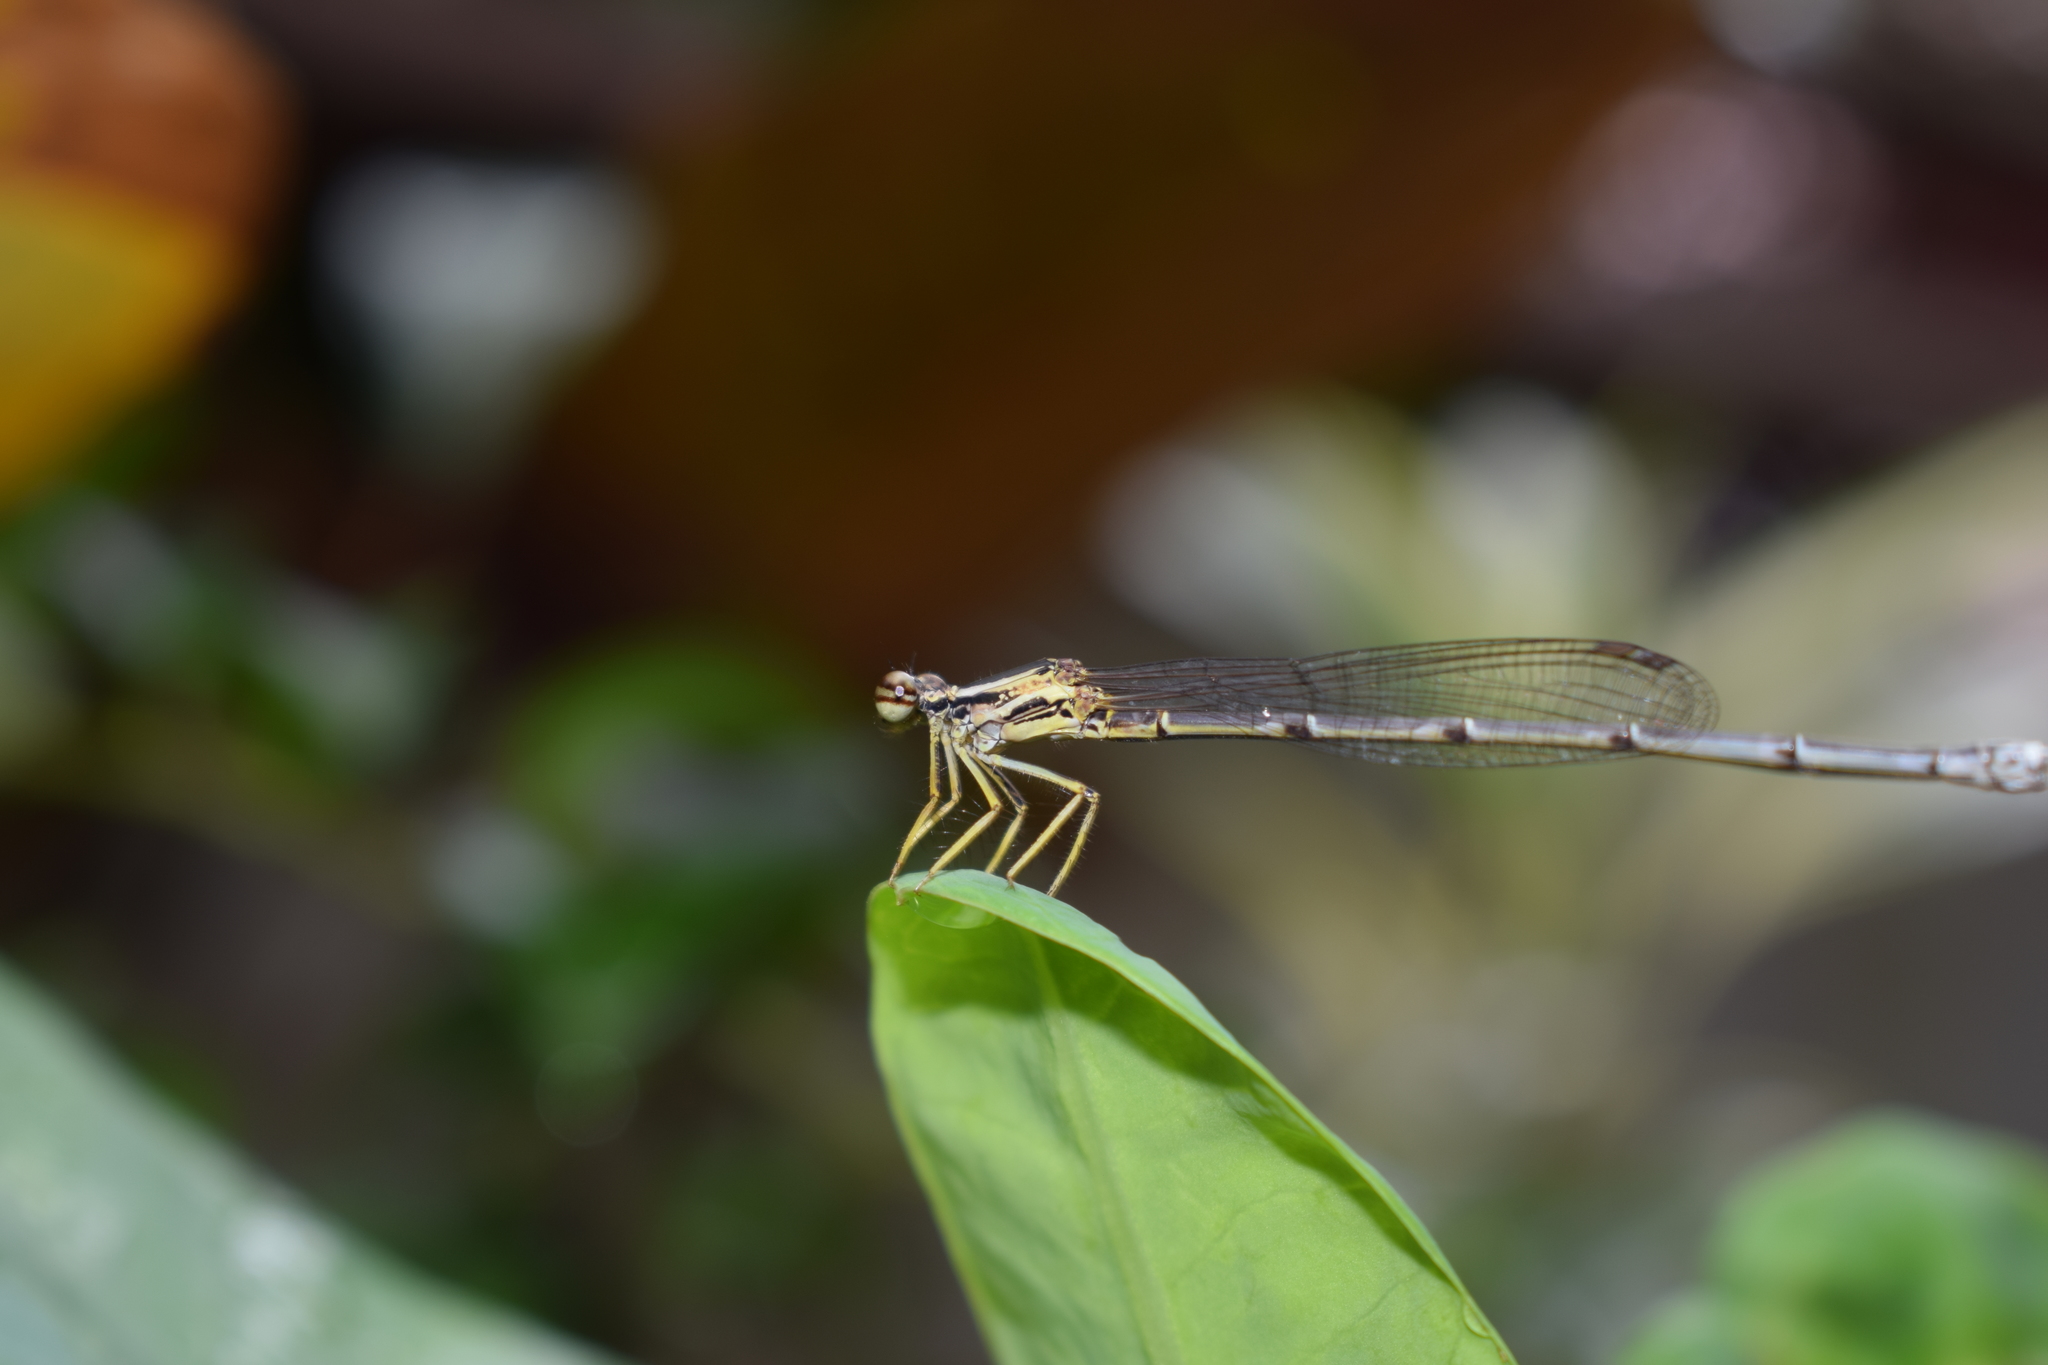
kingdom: Animalia
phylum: Arthropoda
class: Insecta
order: Odonata
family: Platycnemididae
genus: Copera
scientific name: Copera vittata
